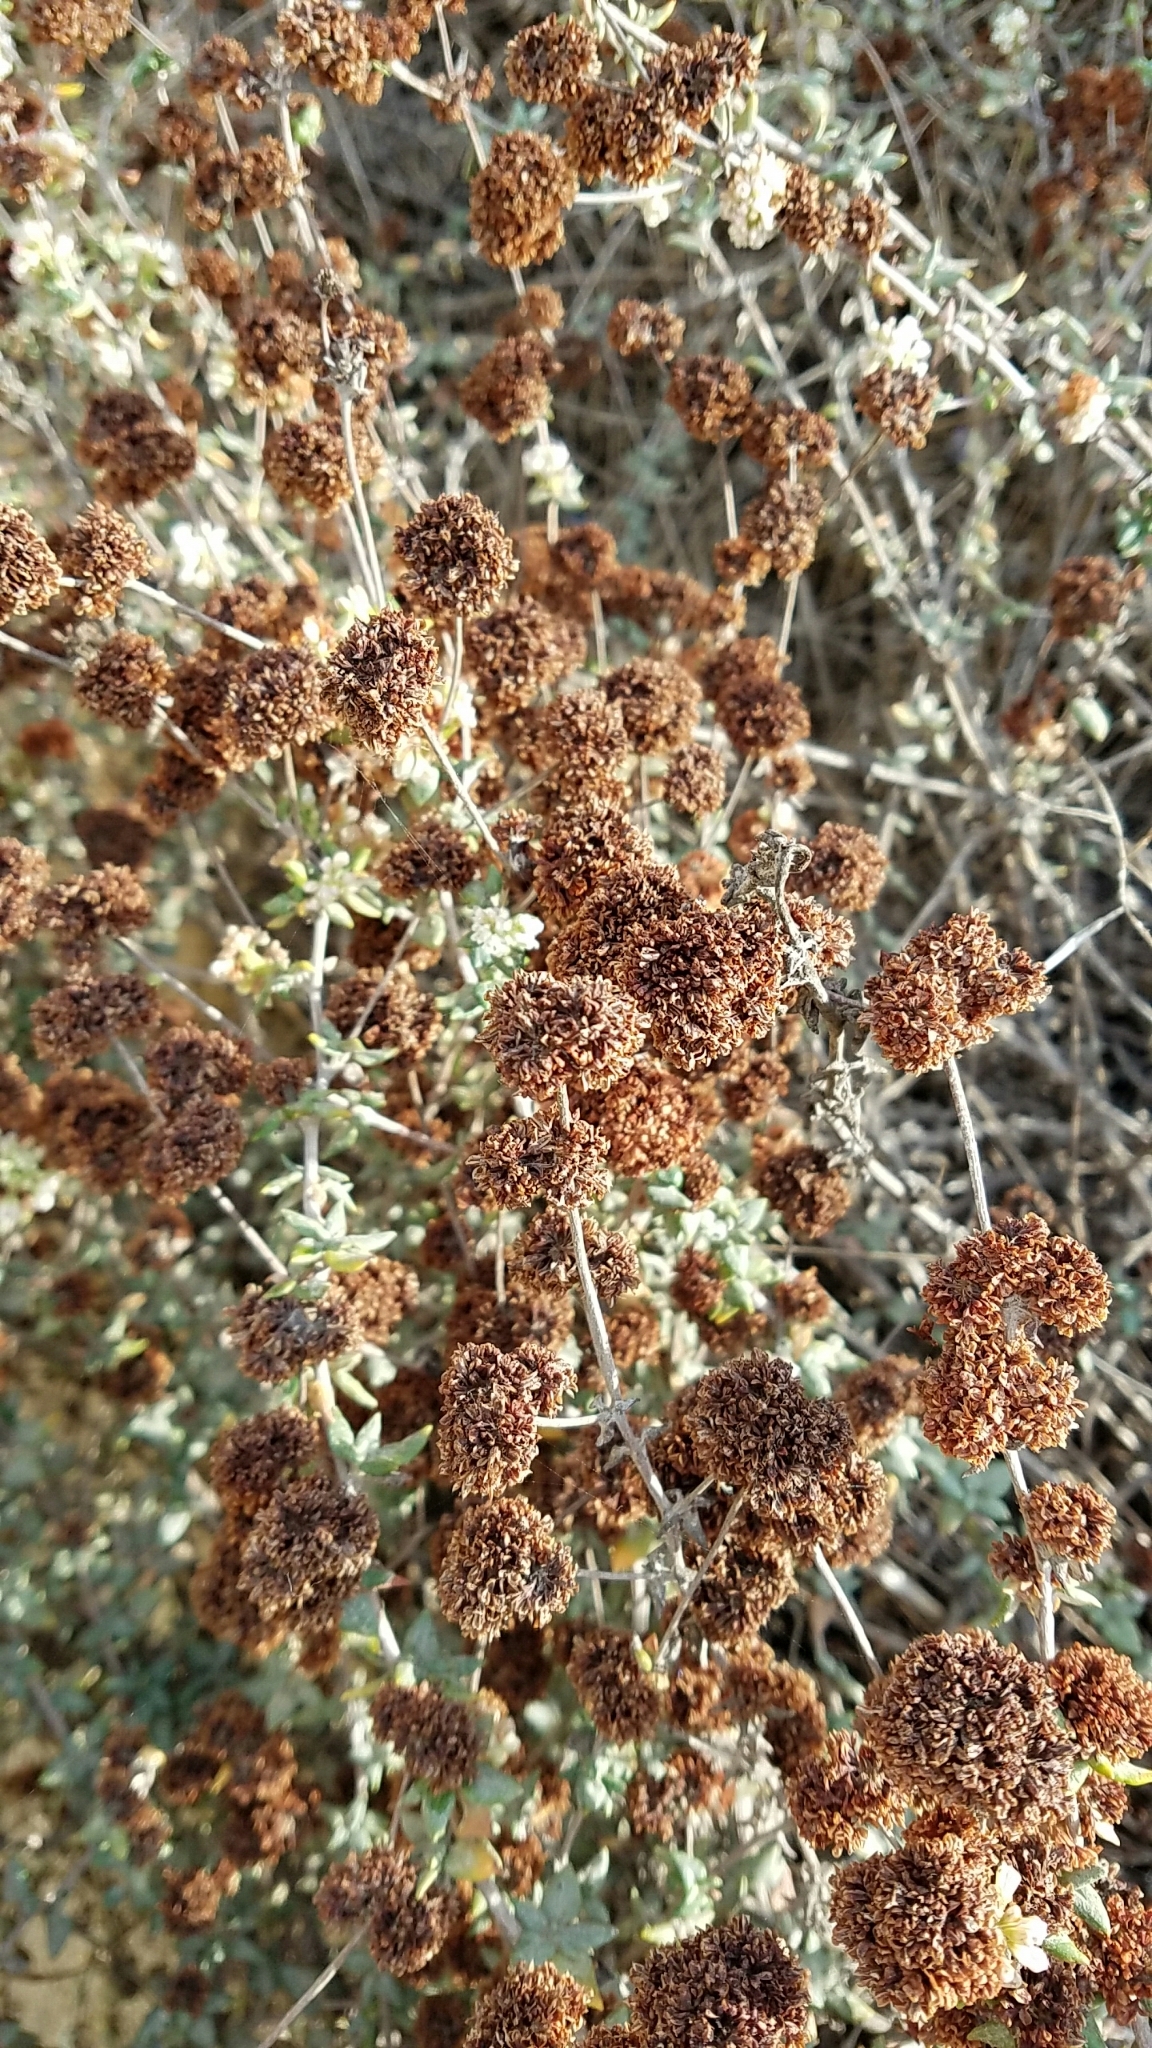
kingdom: Plantae
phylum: Tracheophyta
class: Magnoliopsida
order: Caryophyllales
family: Polygonaceae
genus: Eriogonum
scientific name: Eriogonum parvifolium
